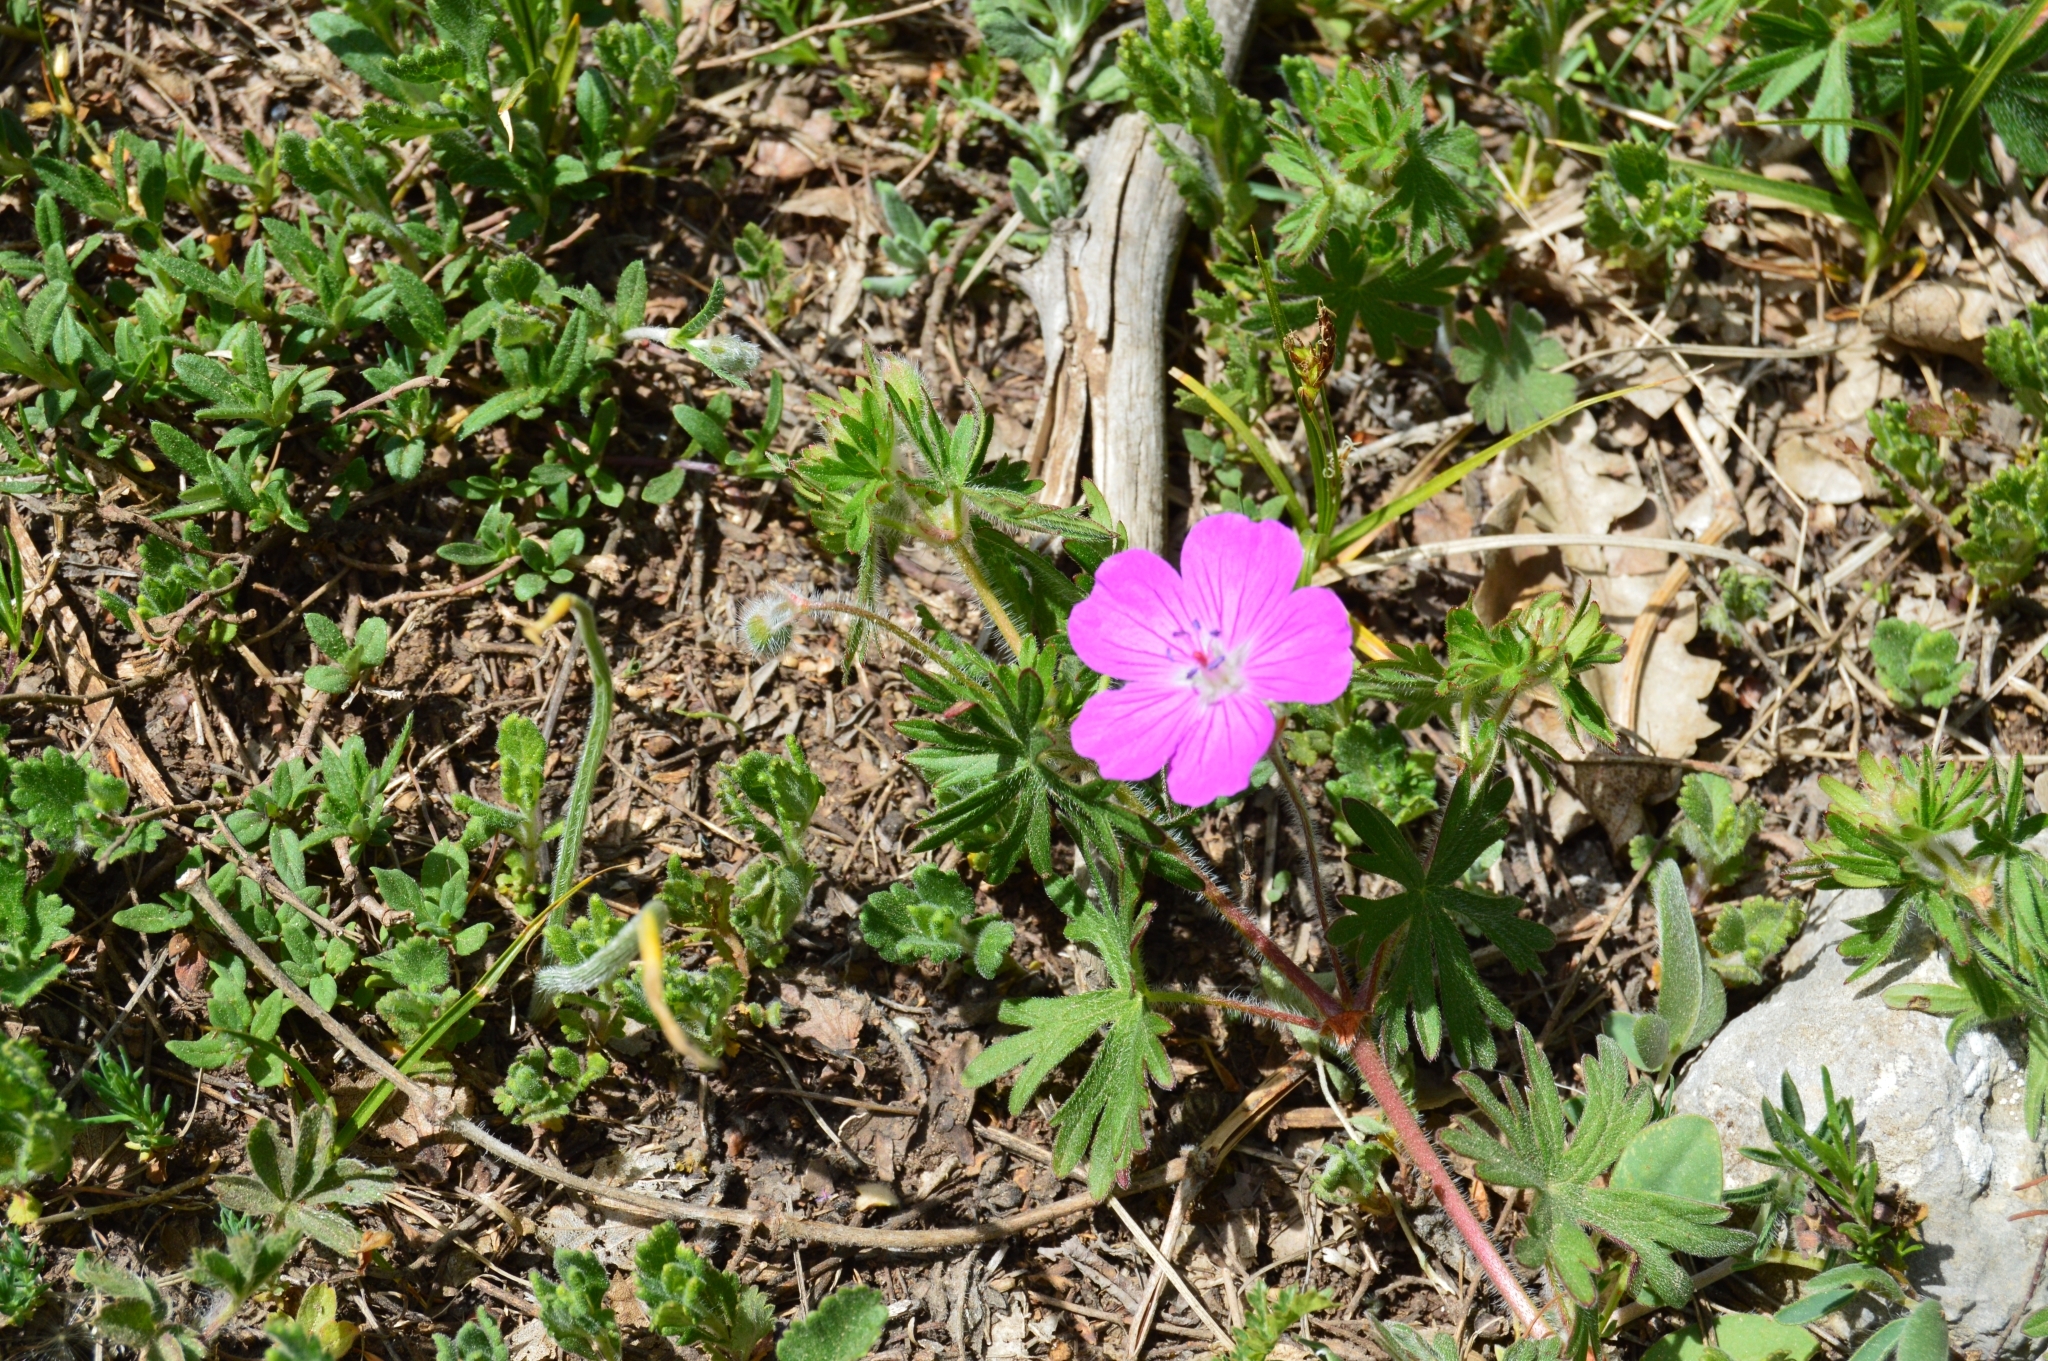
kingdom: Plantae
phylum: Tracheophyta
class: Magnoliopsida
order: Geraniales
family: Geraniaceae
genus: Geranium
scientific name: Geranium sanguineum
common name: Bloody crane's-bill
